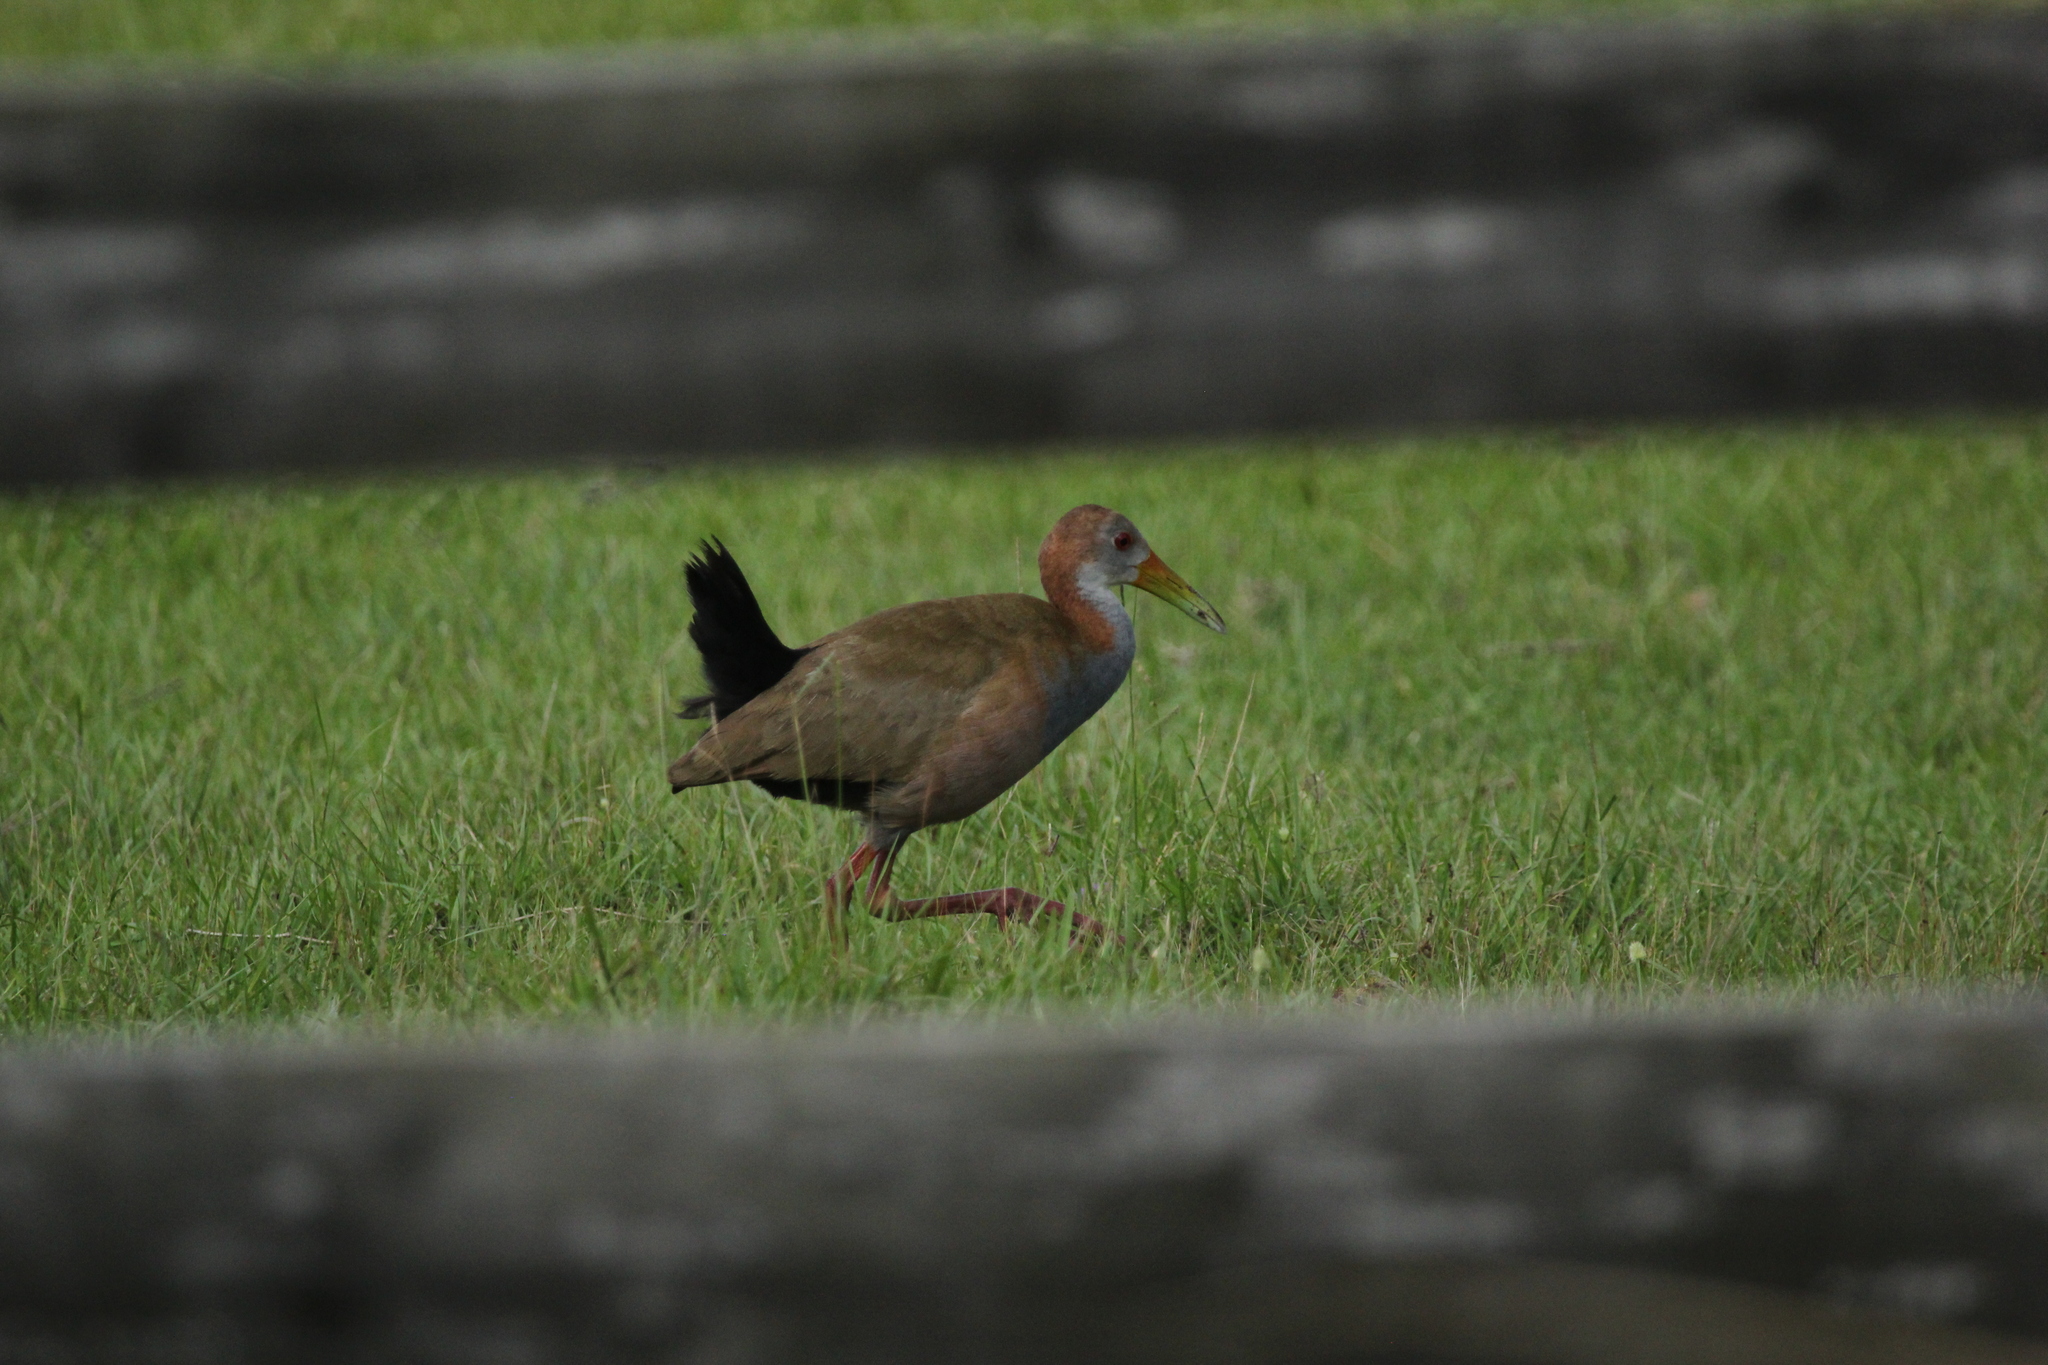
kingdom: Animalia
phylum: Chordata
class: Aves
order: Gruiformes
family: Rallidae
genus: Aramides
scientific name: Aramides ypecaha
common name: Giant wood rail
